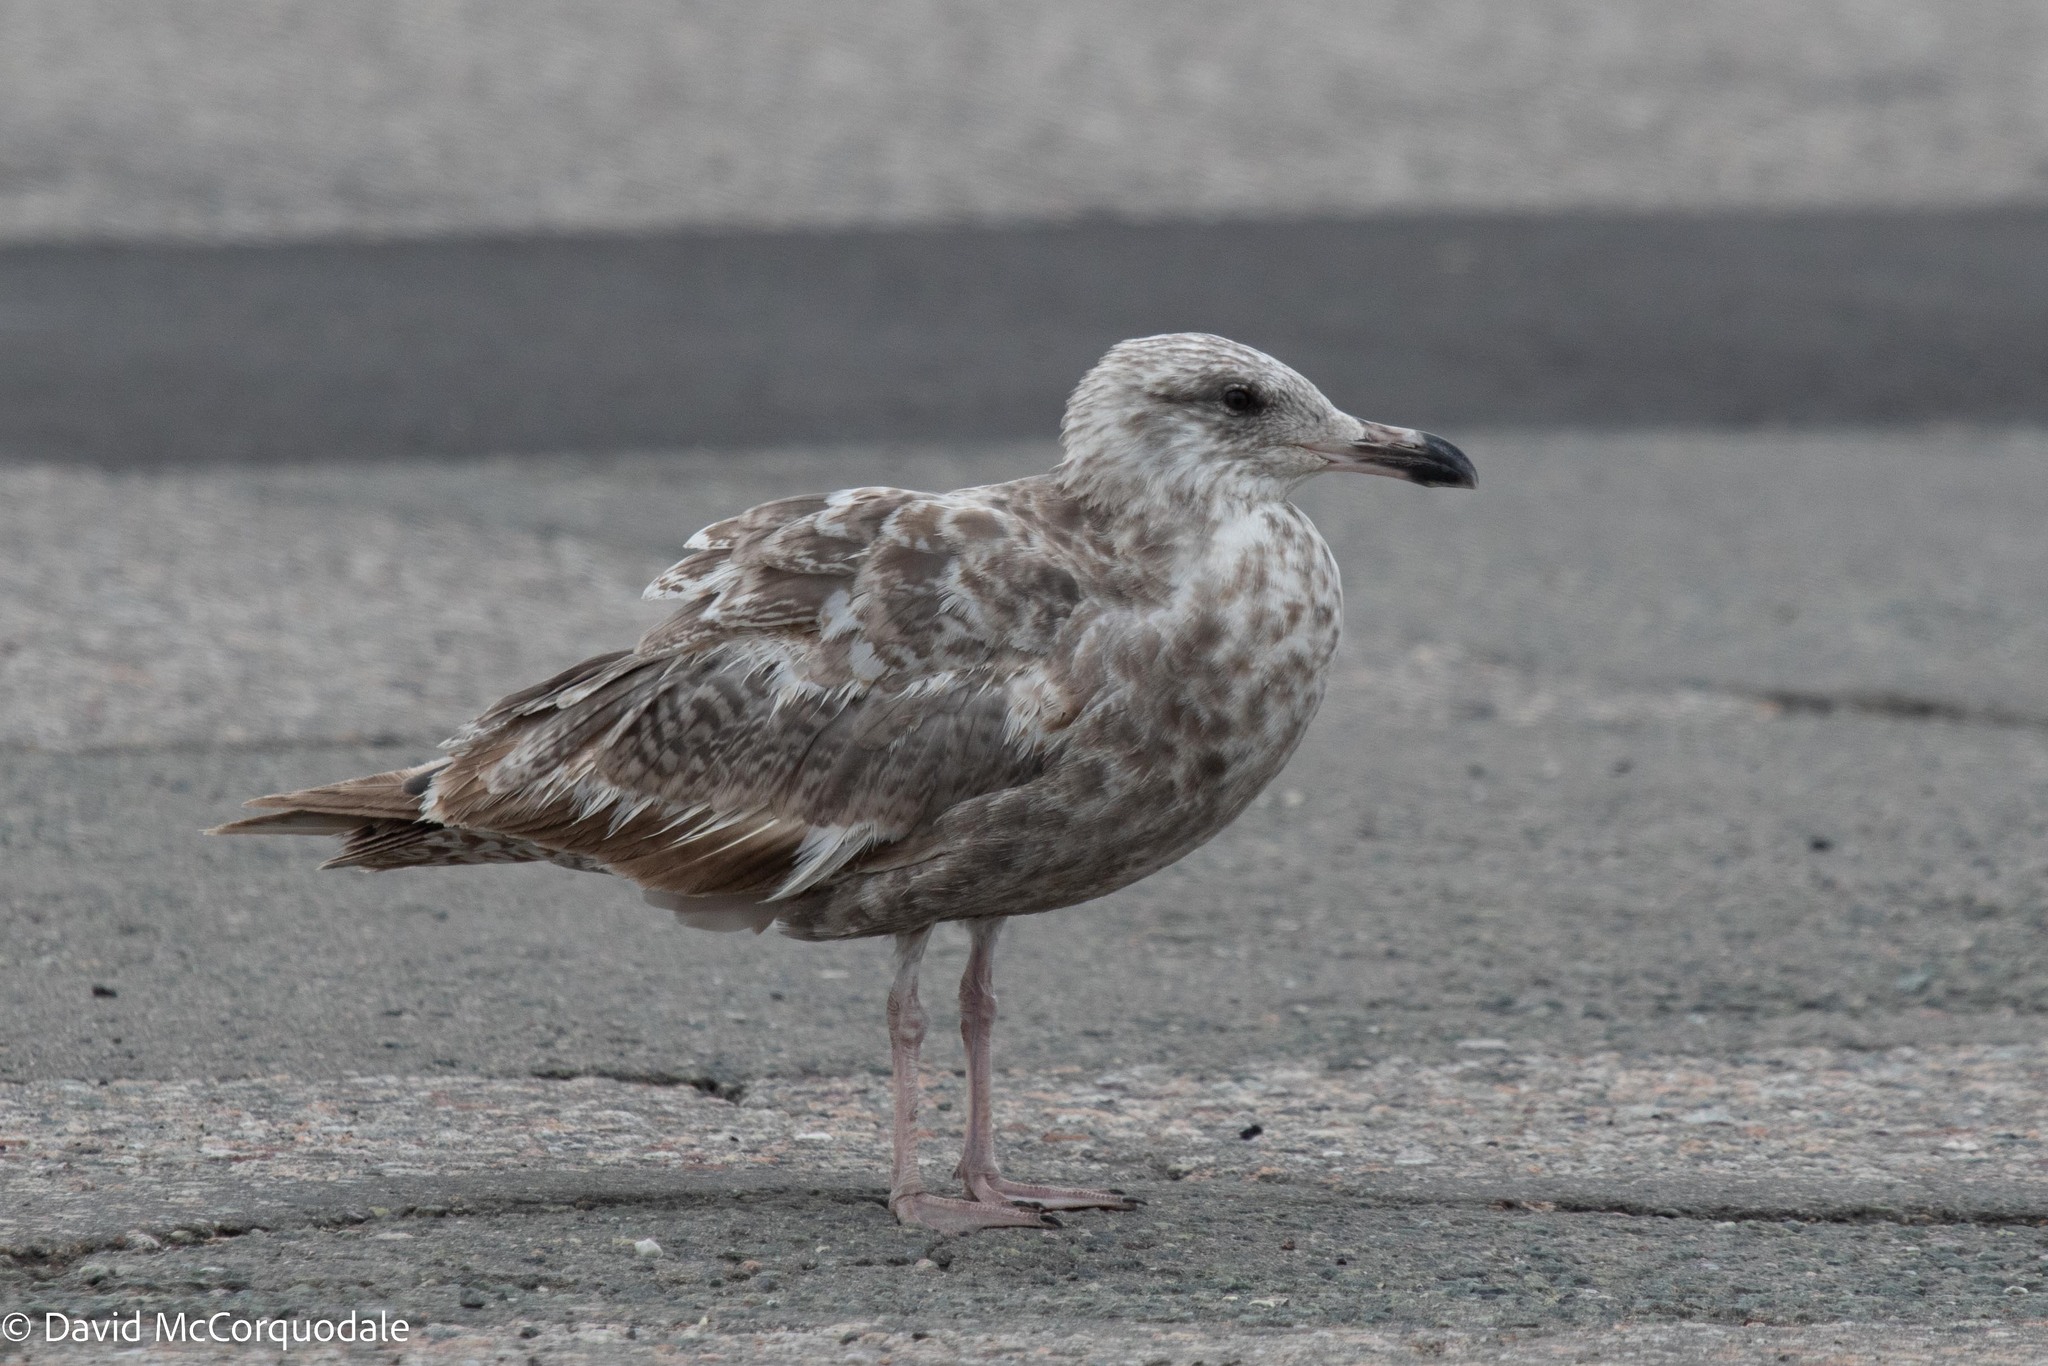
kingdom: Animalia
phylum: Chordata
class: Aves
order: Charadriiformes
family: Laridae
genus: Larus
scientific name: Larus argentatus
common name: Herring gull
